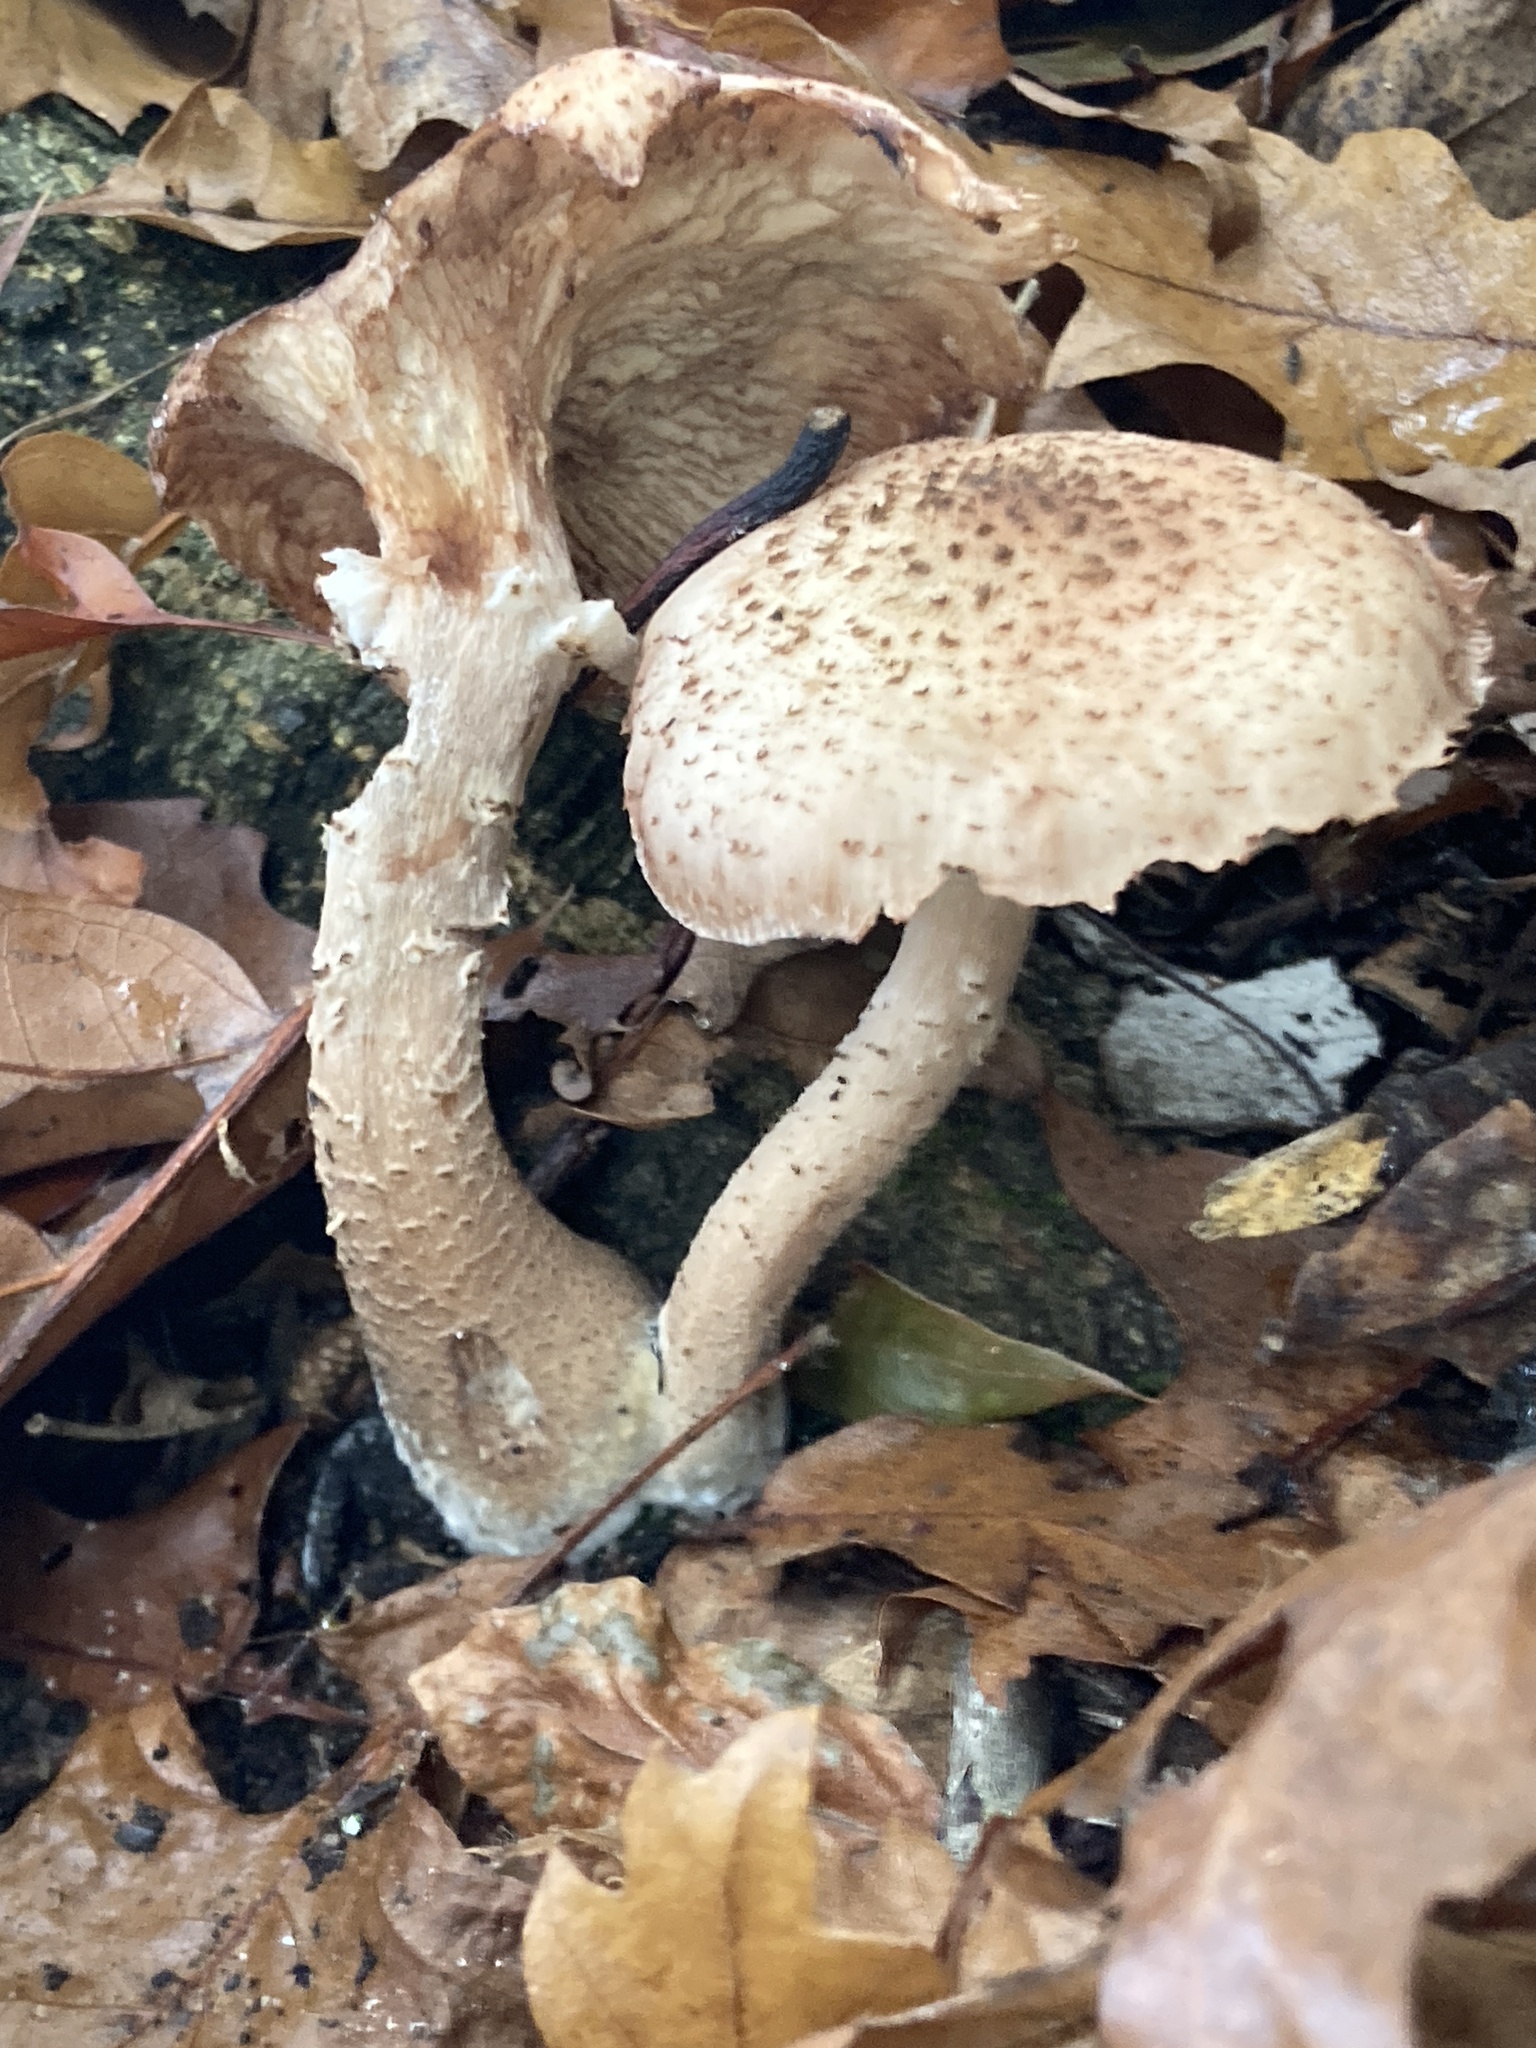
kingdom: Fungi
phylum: Basidiomycota
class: Agaricomycetes
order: Agaricales
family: Physalacriaceae
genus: Armillaria
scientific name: Armillaria ostoyae
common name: Dark honey fungus
